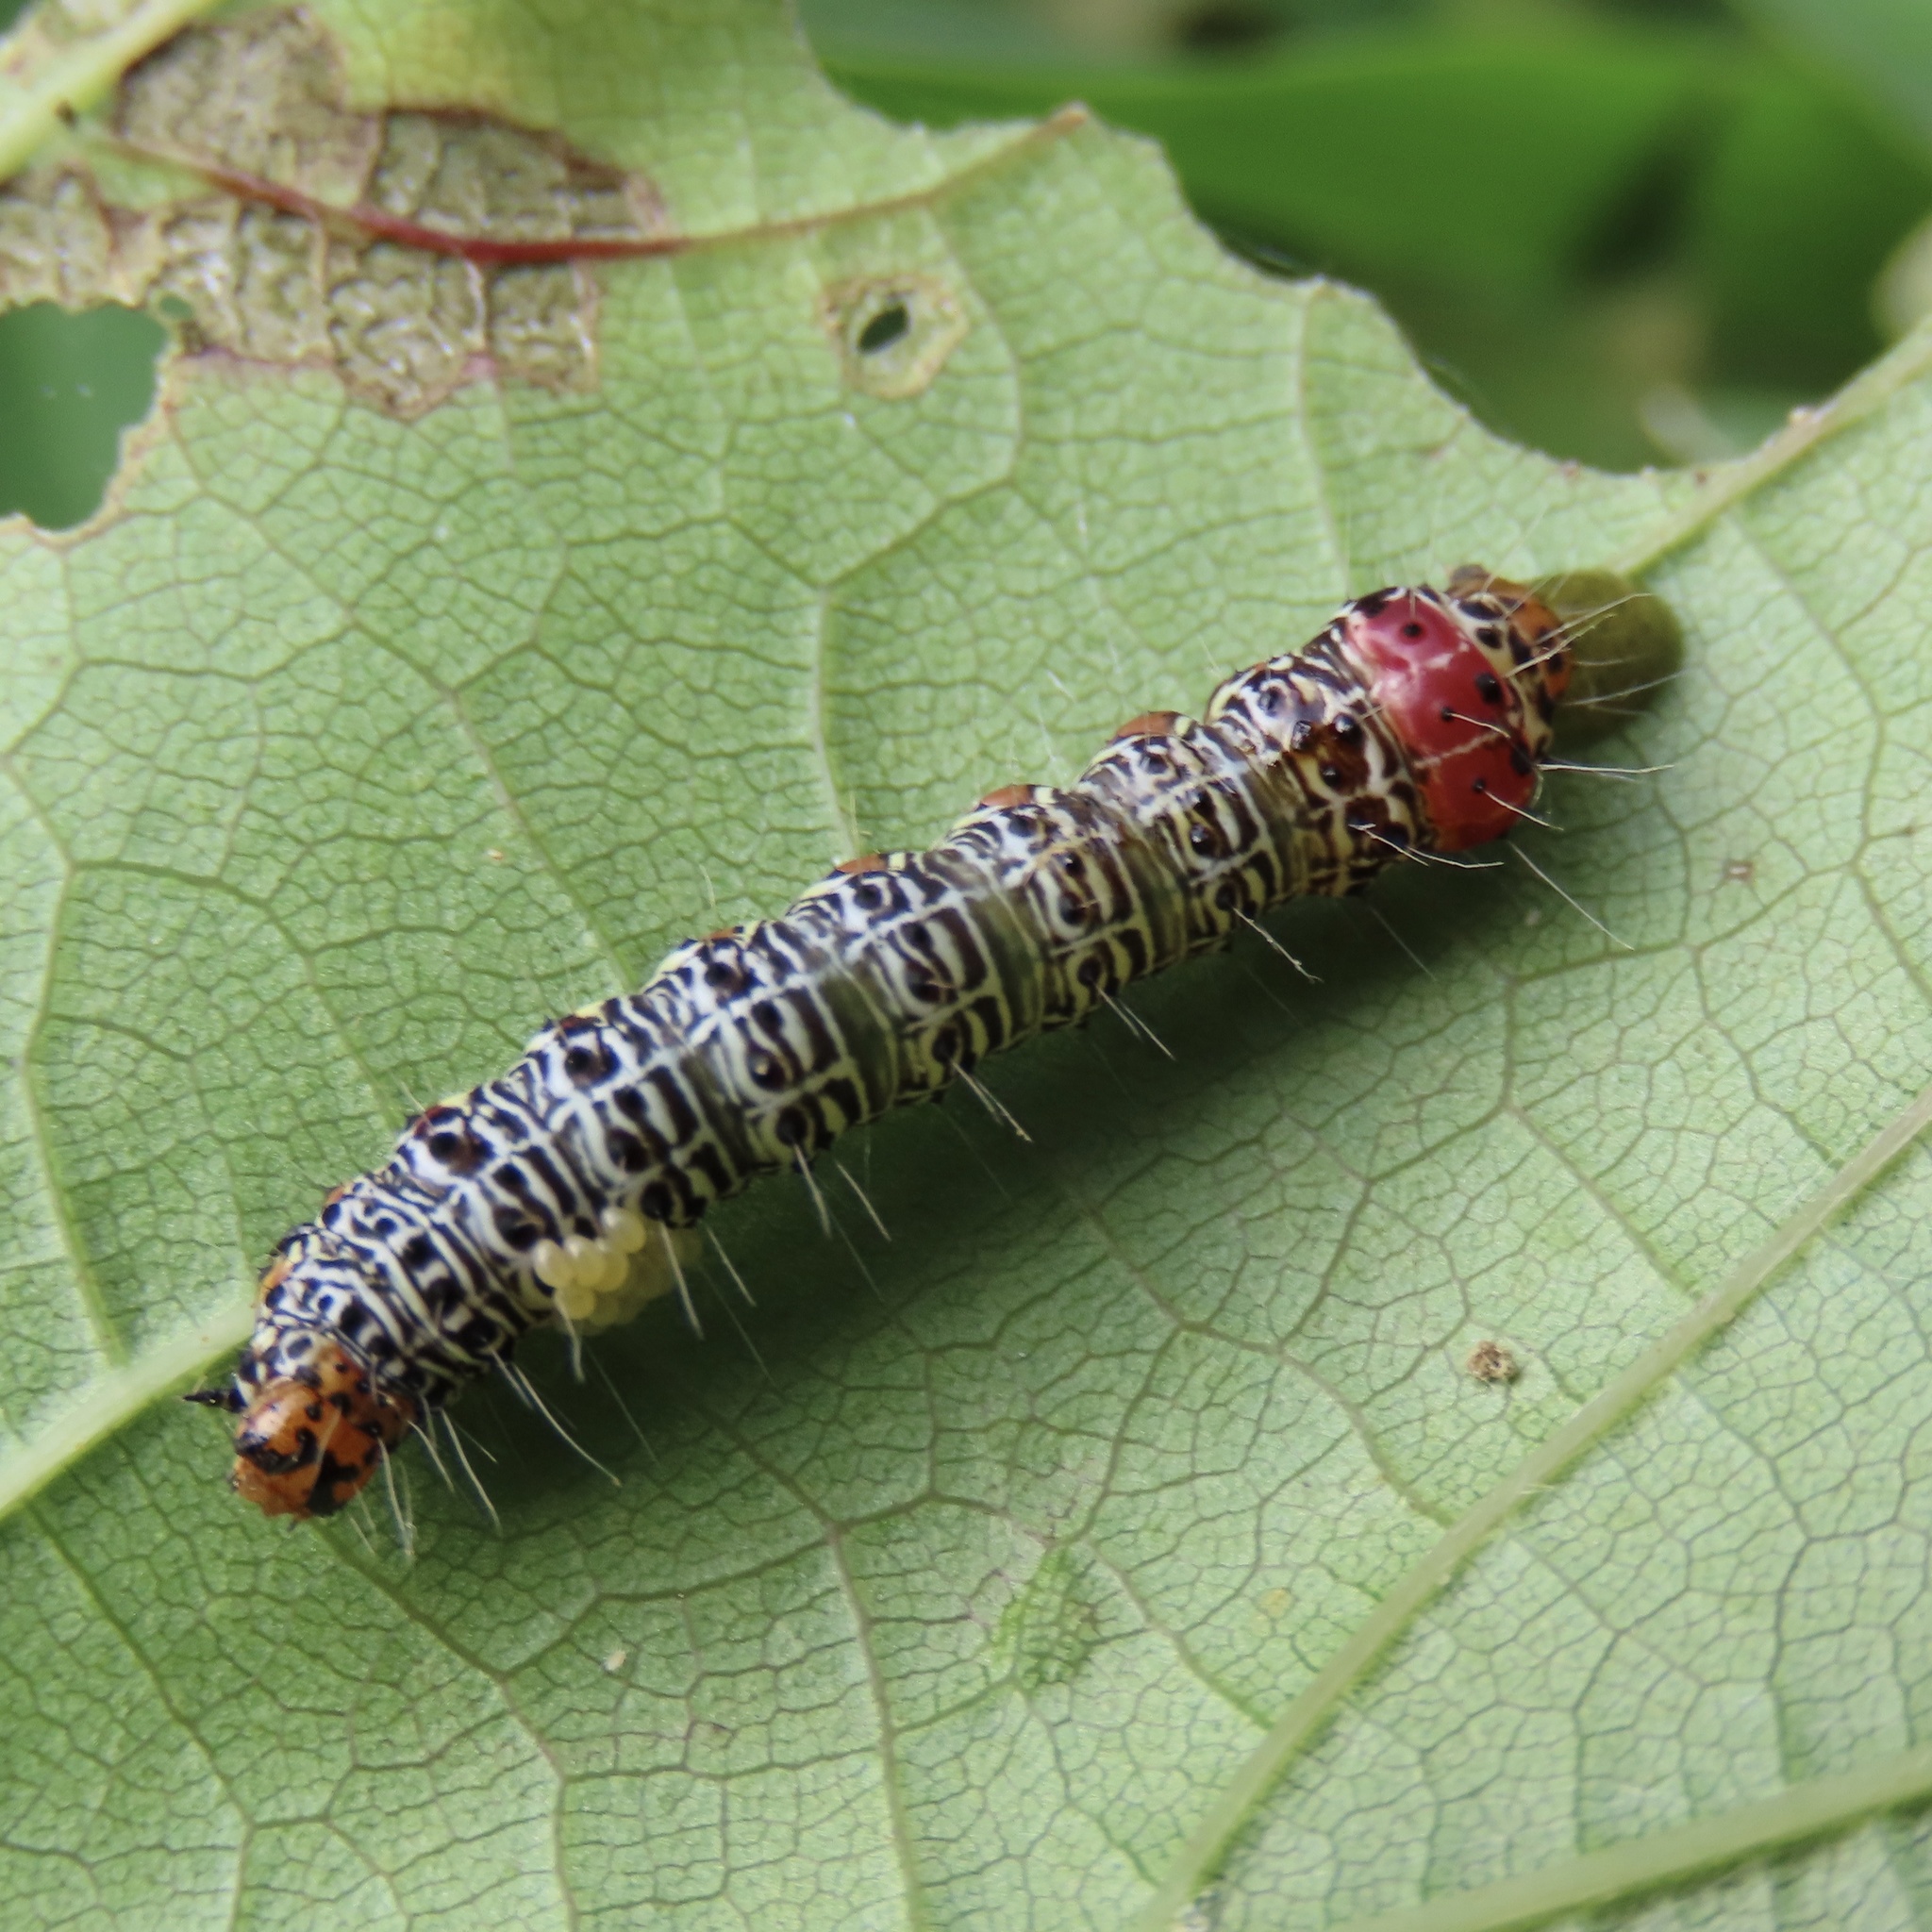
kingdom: Animalia
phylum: Arthropoda
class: Insecta
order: Lepidoptera
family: Noctuidae
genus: Phalaenoides
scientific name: Phalaenoides glycinae
